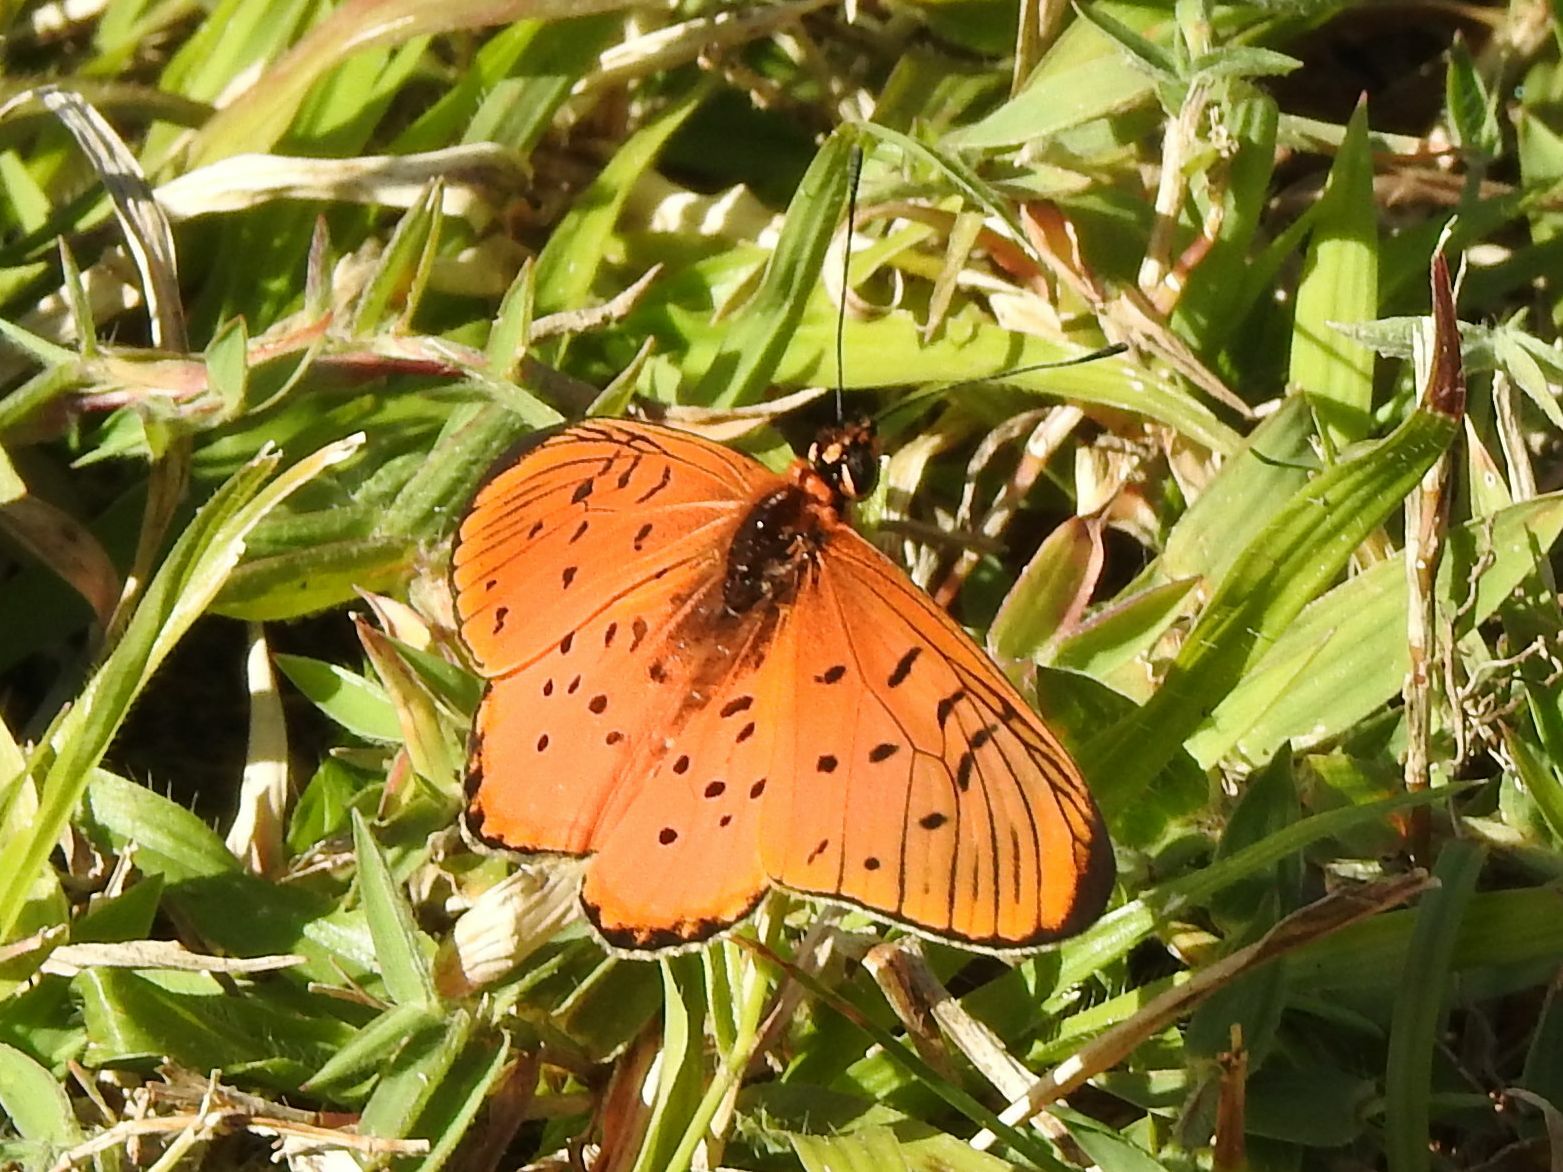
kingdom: Animalia
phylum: Arthropoda
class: Insecta
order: Lepidoptera
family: Nymphalidae
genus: Stephenia
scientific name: Stephenia
